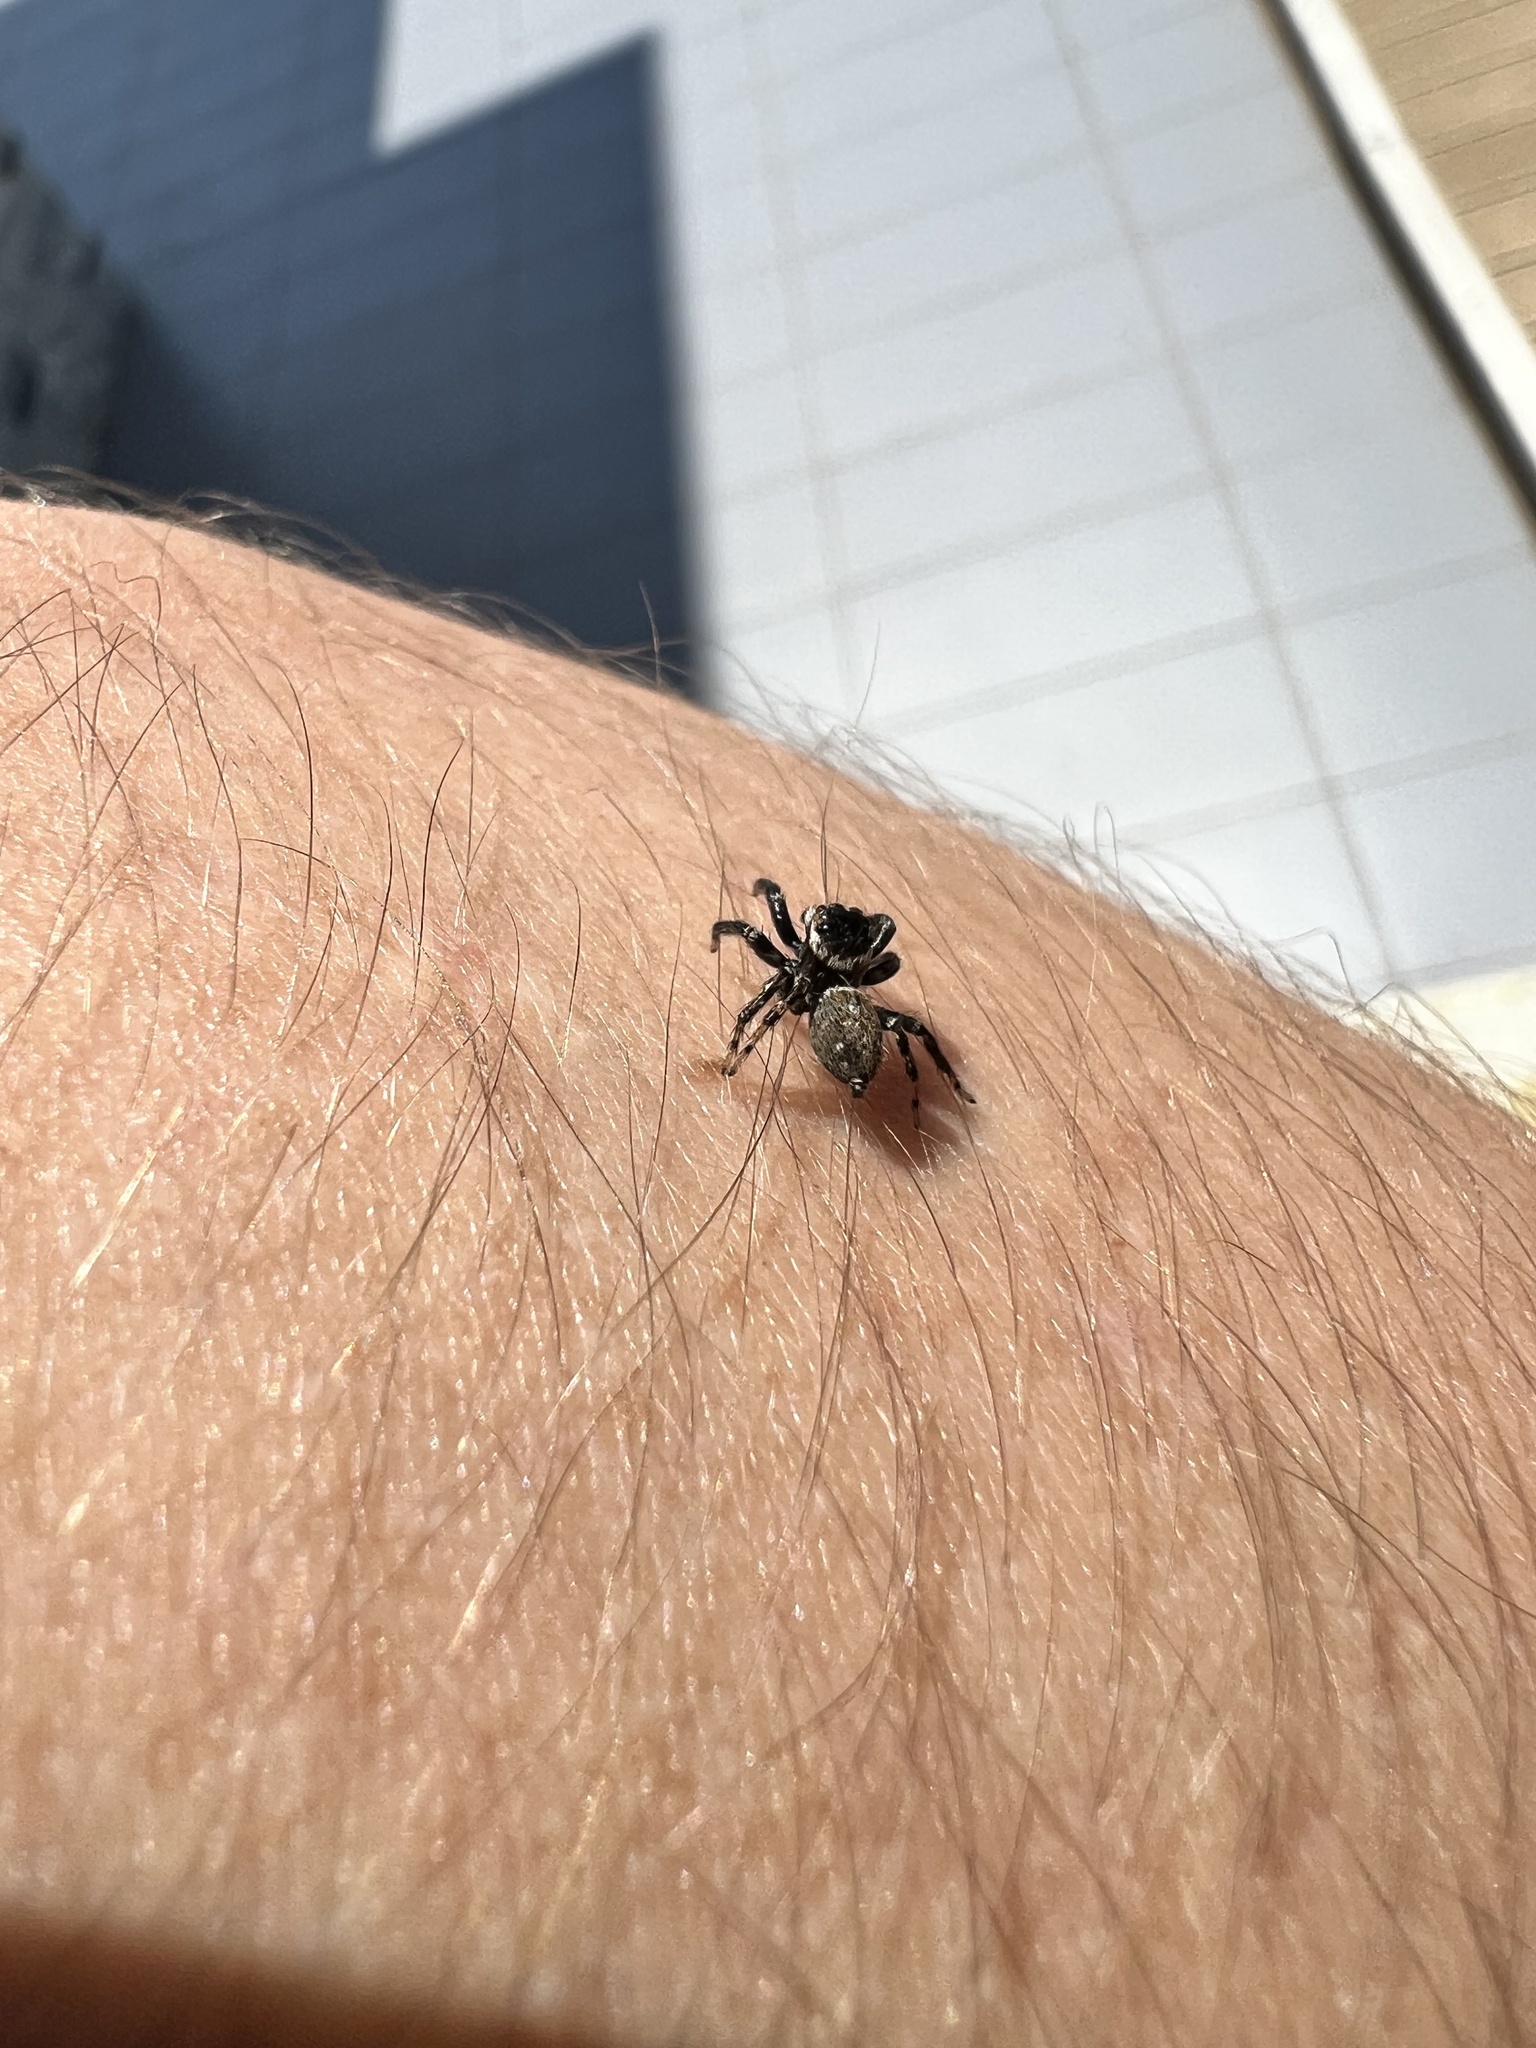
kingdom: Animalia
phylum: Arthropoda
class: Arachnida
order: Araneae
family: Salticidae
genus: Evarcha
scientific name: Evarcha jucunda
